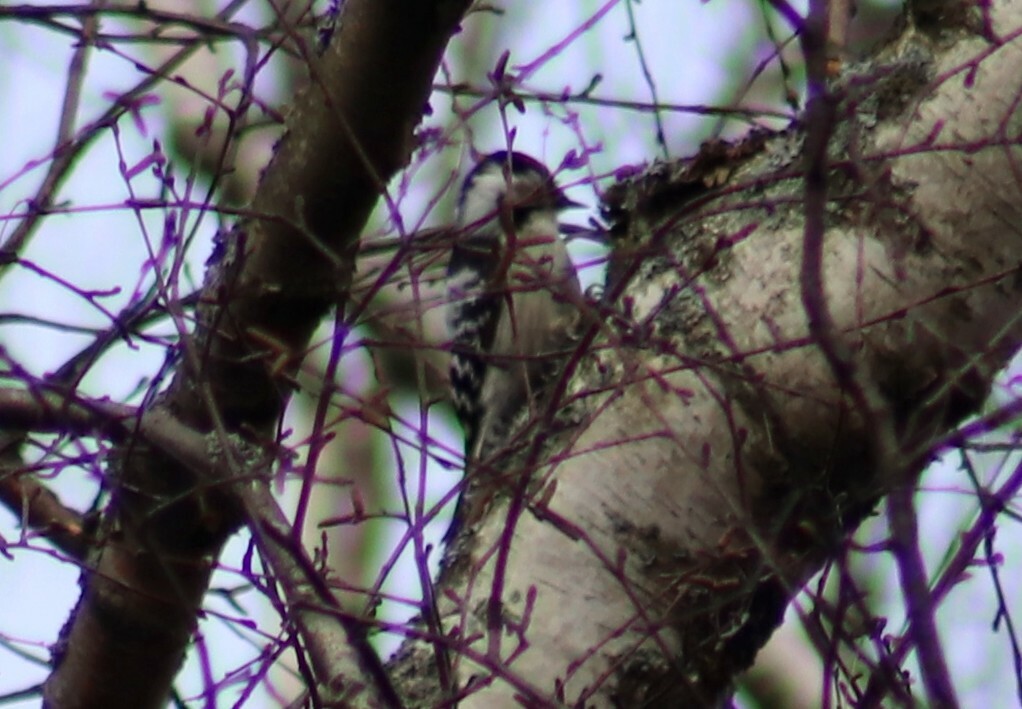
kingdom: Animalia
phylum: Chordata
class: Aves
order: Piciformes
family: Picidae
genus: Dryobates
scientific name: Dryobates minor
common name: Lesser spotted woodpecker
